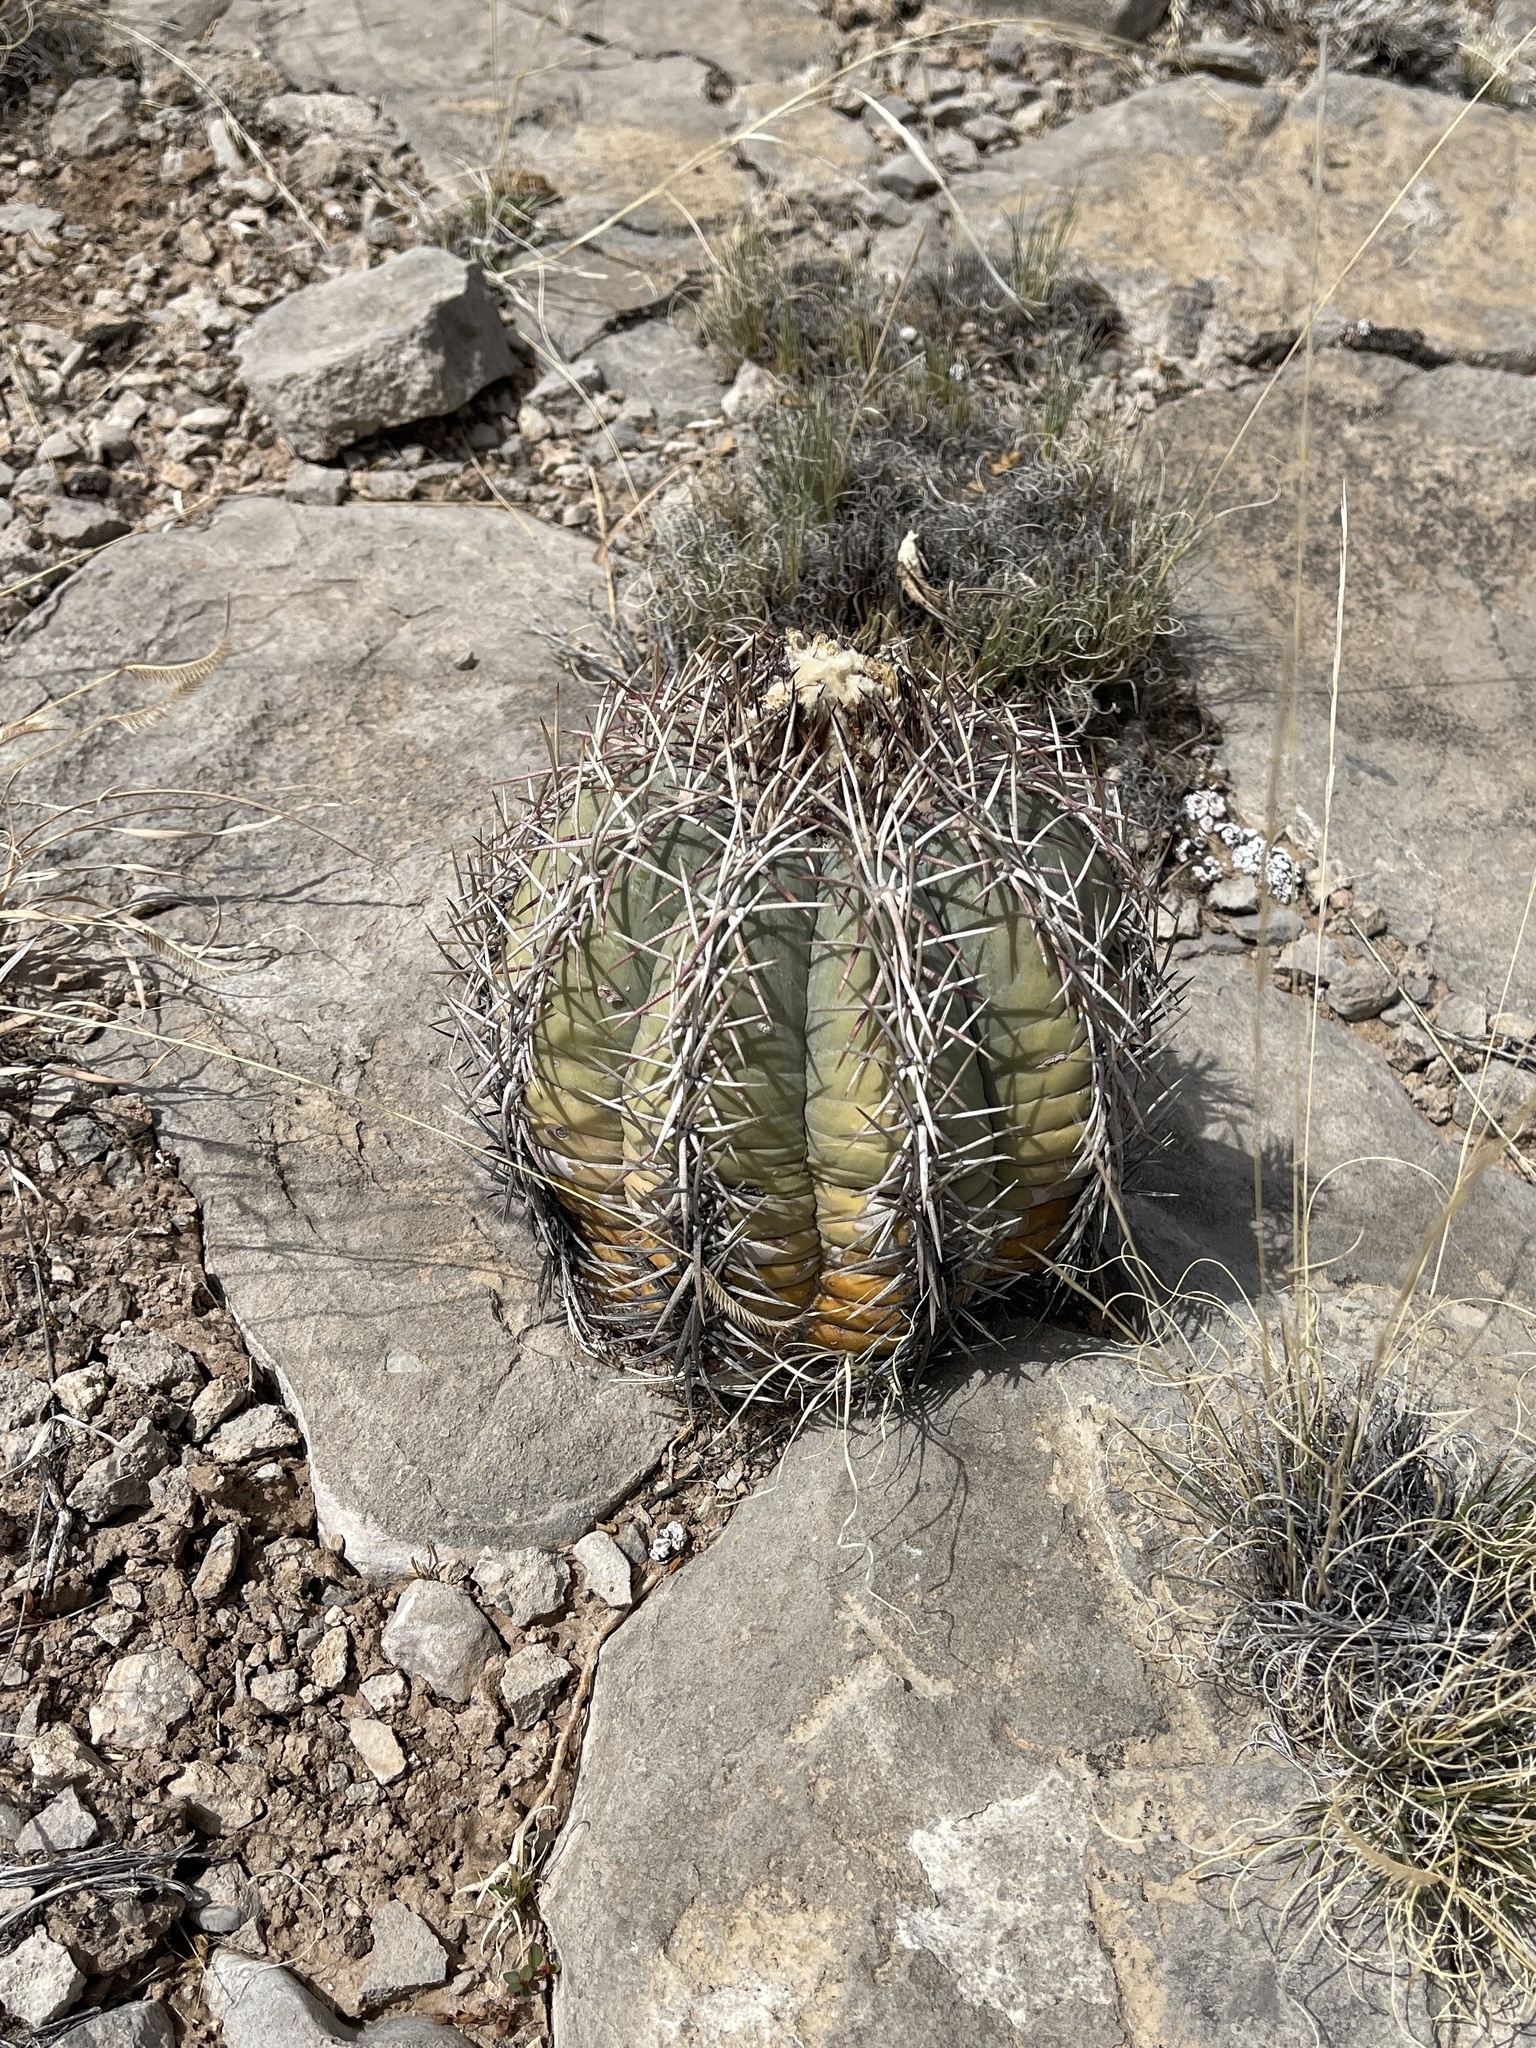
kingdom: Plantae
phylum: Tracheophyta
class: Magnoliopsida
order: Caryophyllales
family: Cactaceae
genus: Echinocactus
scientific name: Echinocactus horizonthalonius
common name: Devilshead
